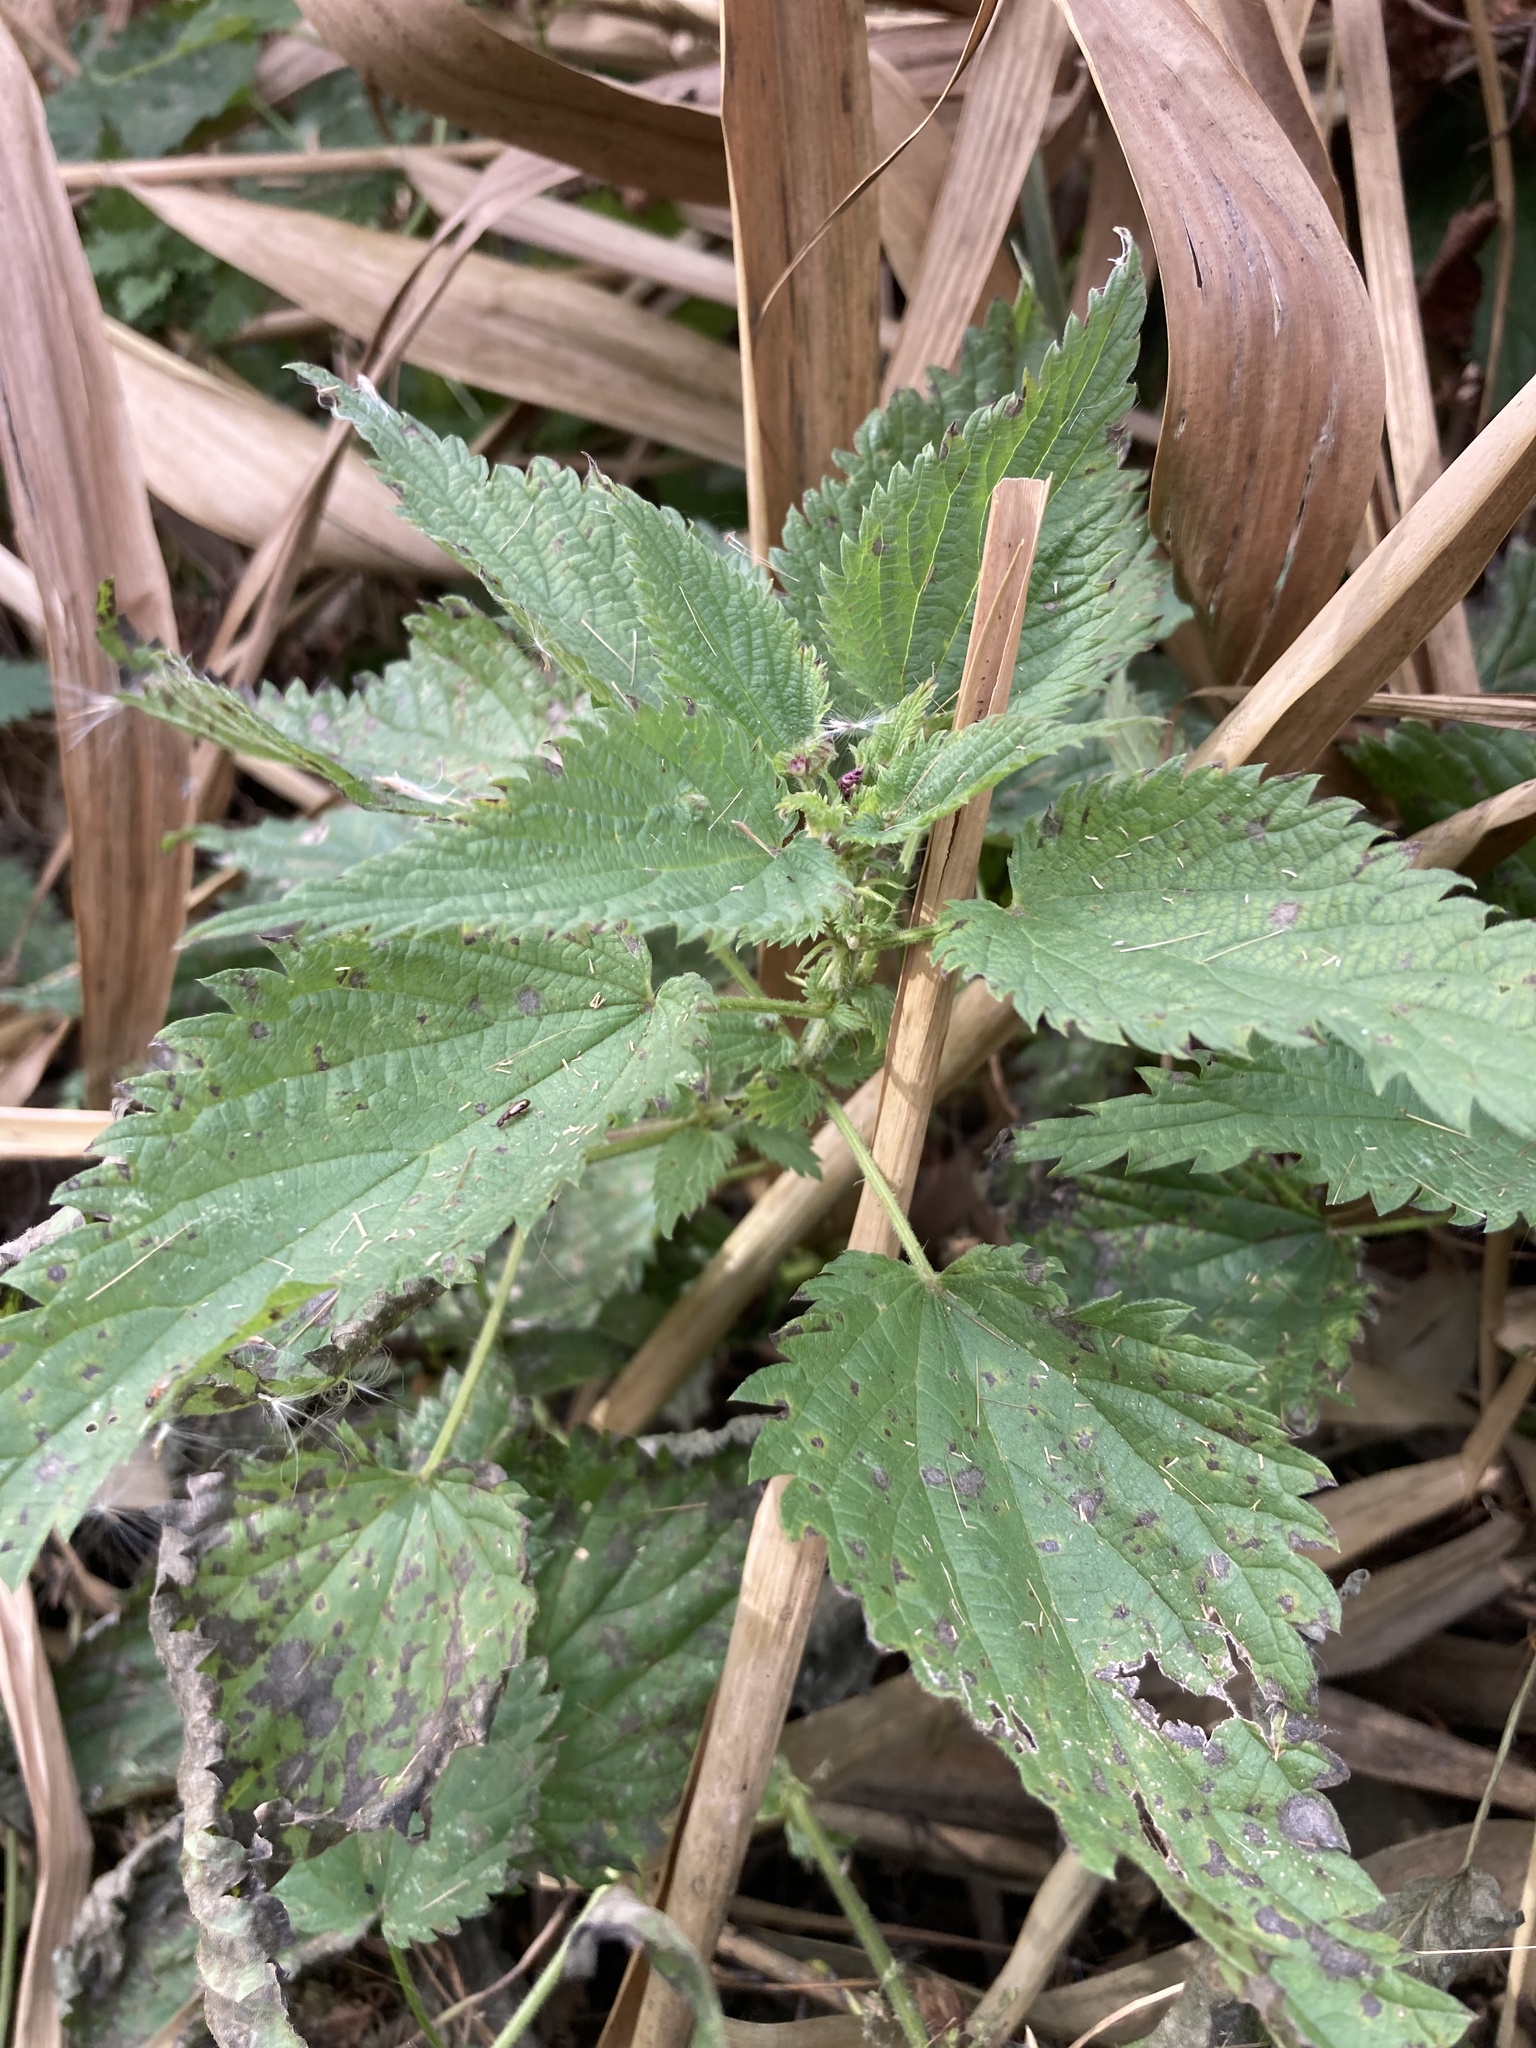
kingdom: Plantae
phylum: Tracheophyta
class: Magnoliopsida
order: Rosales
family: Urticaceae
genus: Urtica
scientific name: Urtica dioica
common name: Common nettle
